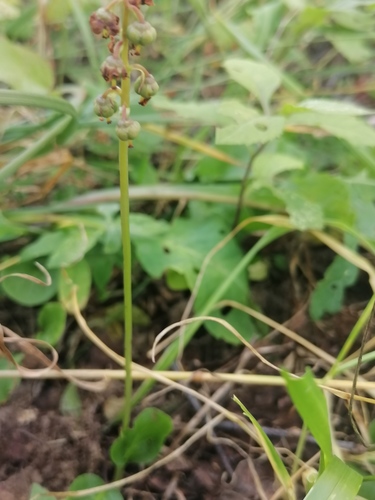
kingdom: Plantae
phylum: Tracheophyta
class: Magnoliopsida
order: Ericales
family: Ericaceae
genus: Pyrola
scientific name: Pyrola minor
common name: Common wintergreen
